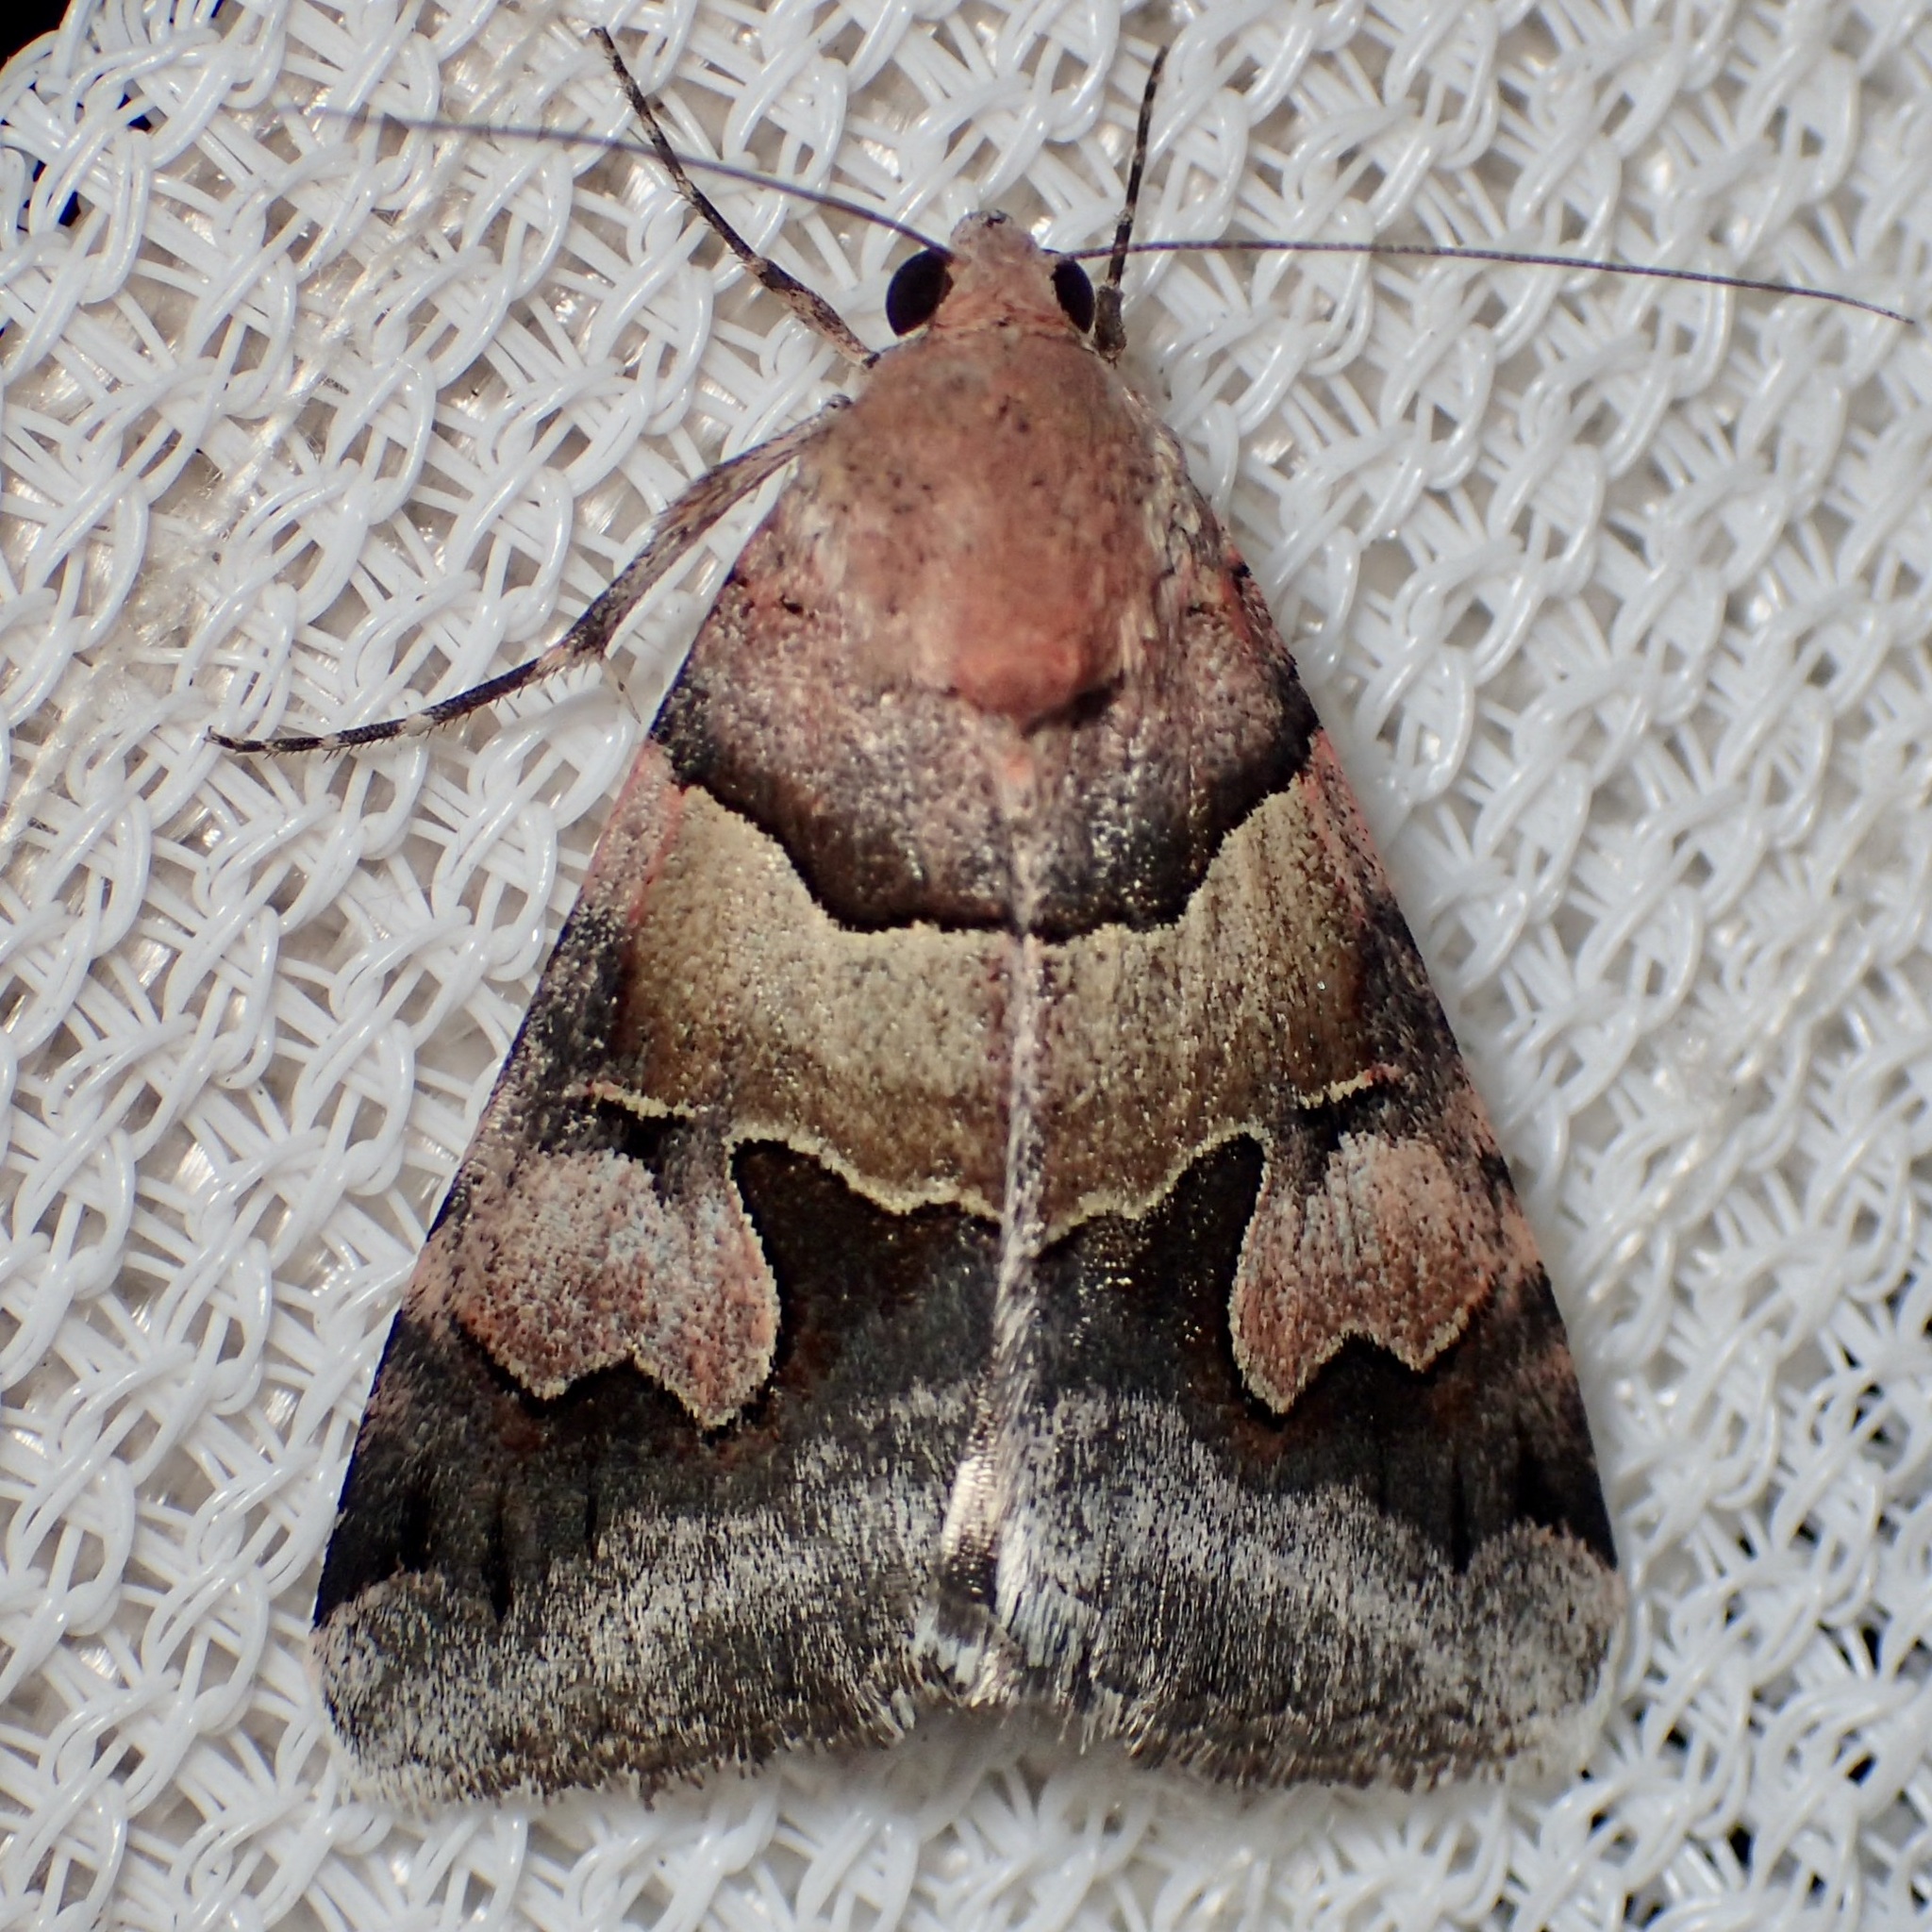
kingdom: Animalia
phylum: Arthropoda
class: Insecta
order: Lepidoptera
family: Erebidae
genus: Drasteria
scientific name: Drasteria pallescens
